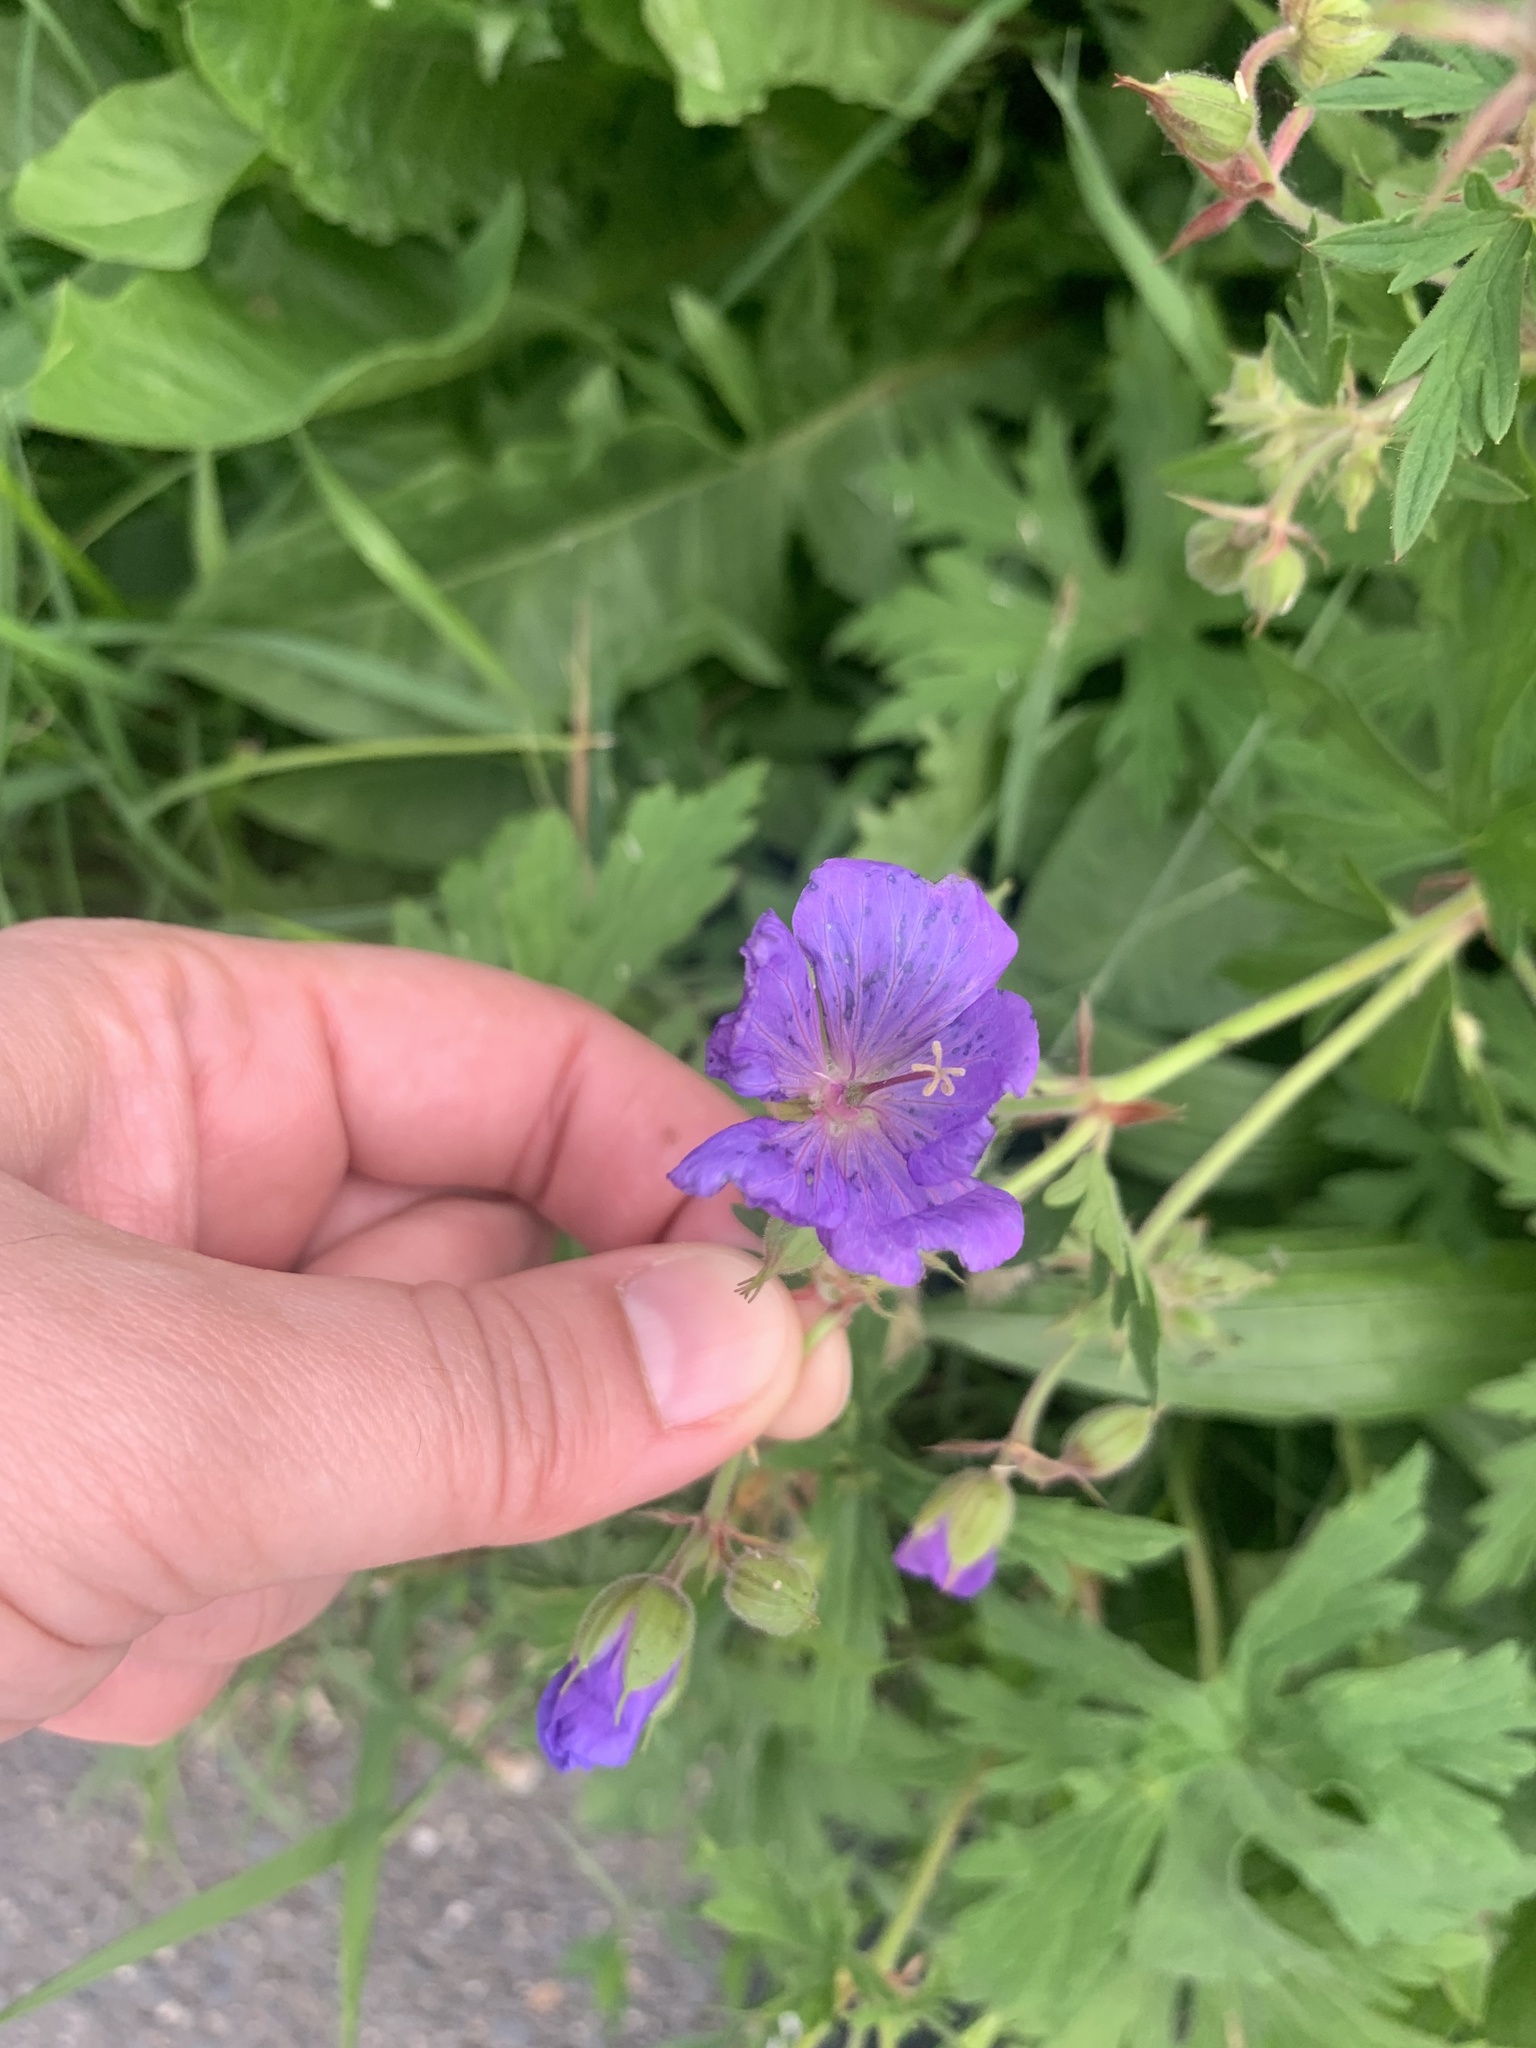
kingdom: Plantae
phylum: Tracheophyta
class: Magnoliopsida
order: Geraniales
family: Geraniaceae
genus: Geranium
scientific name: Geranium pratense
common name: Meadow crane's-bill
